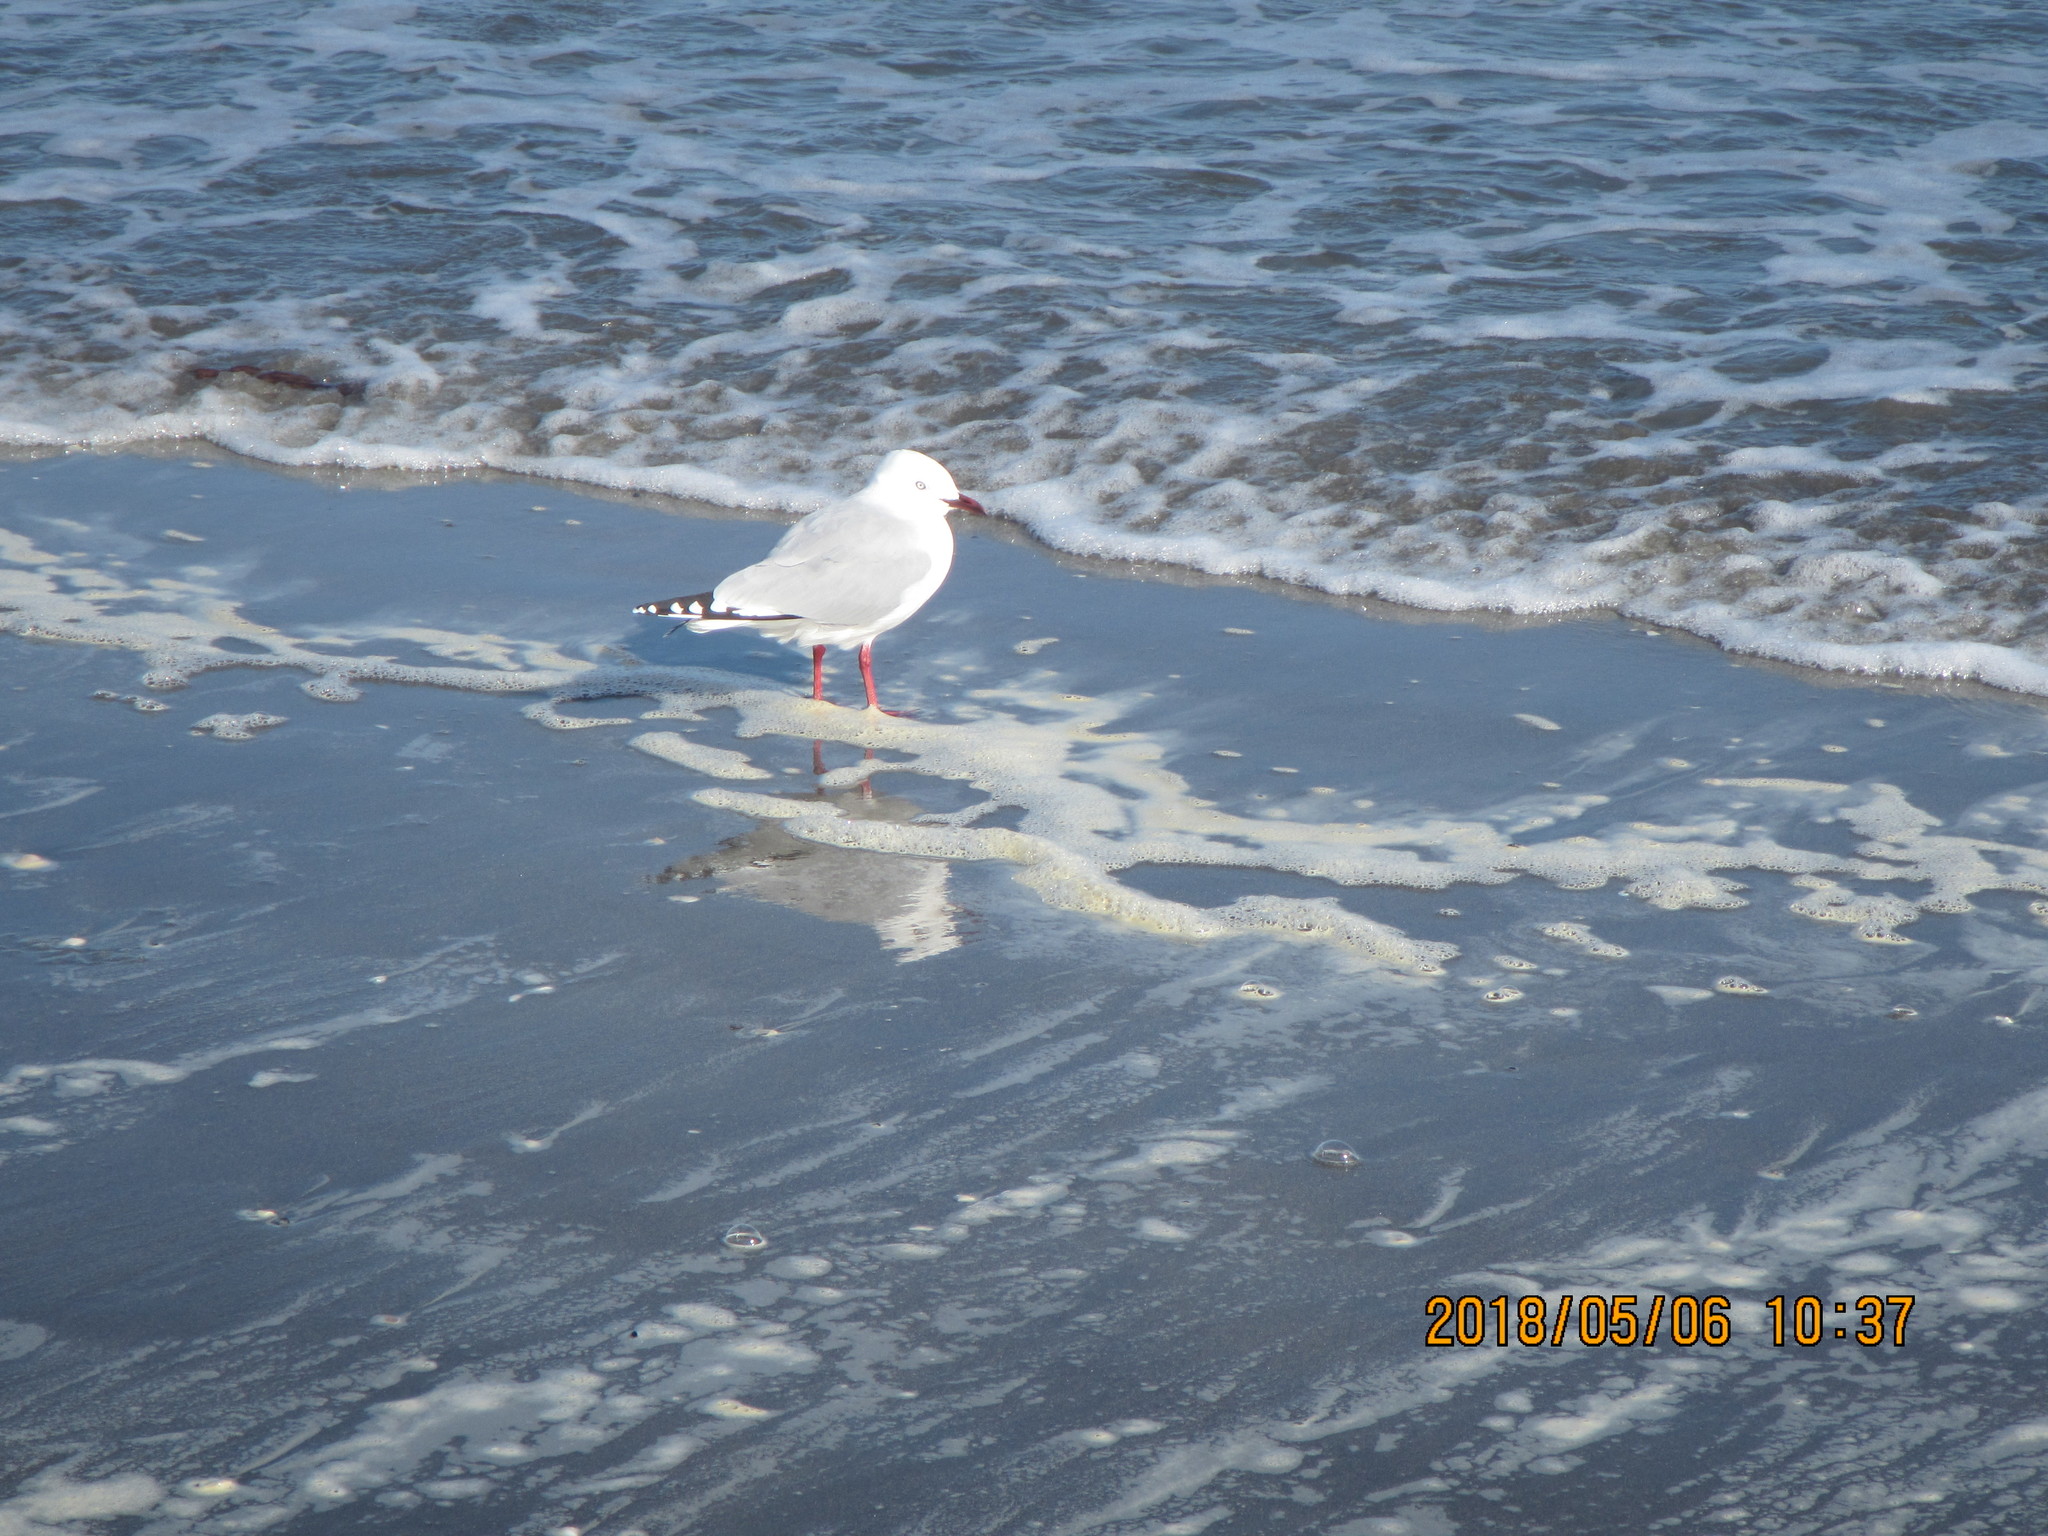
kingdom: Animalia
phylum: Chordata
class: Aves
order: Charadriiformes
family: Laridae
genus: Chroicocephalus
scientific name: Chroicocephalus novaehollandiae
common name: Silver gull
